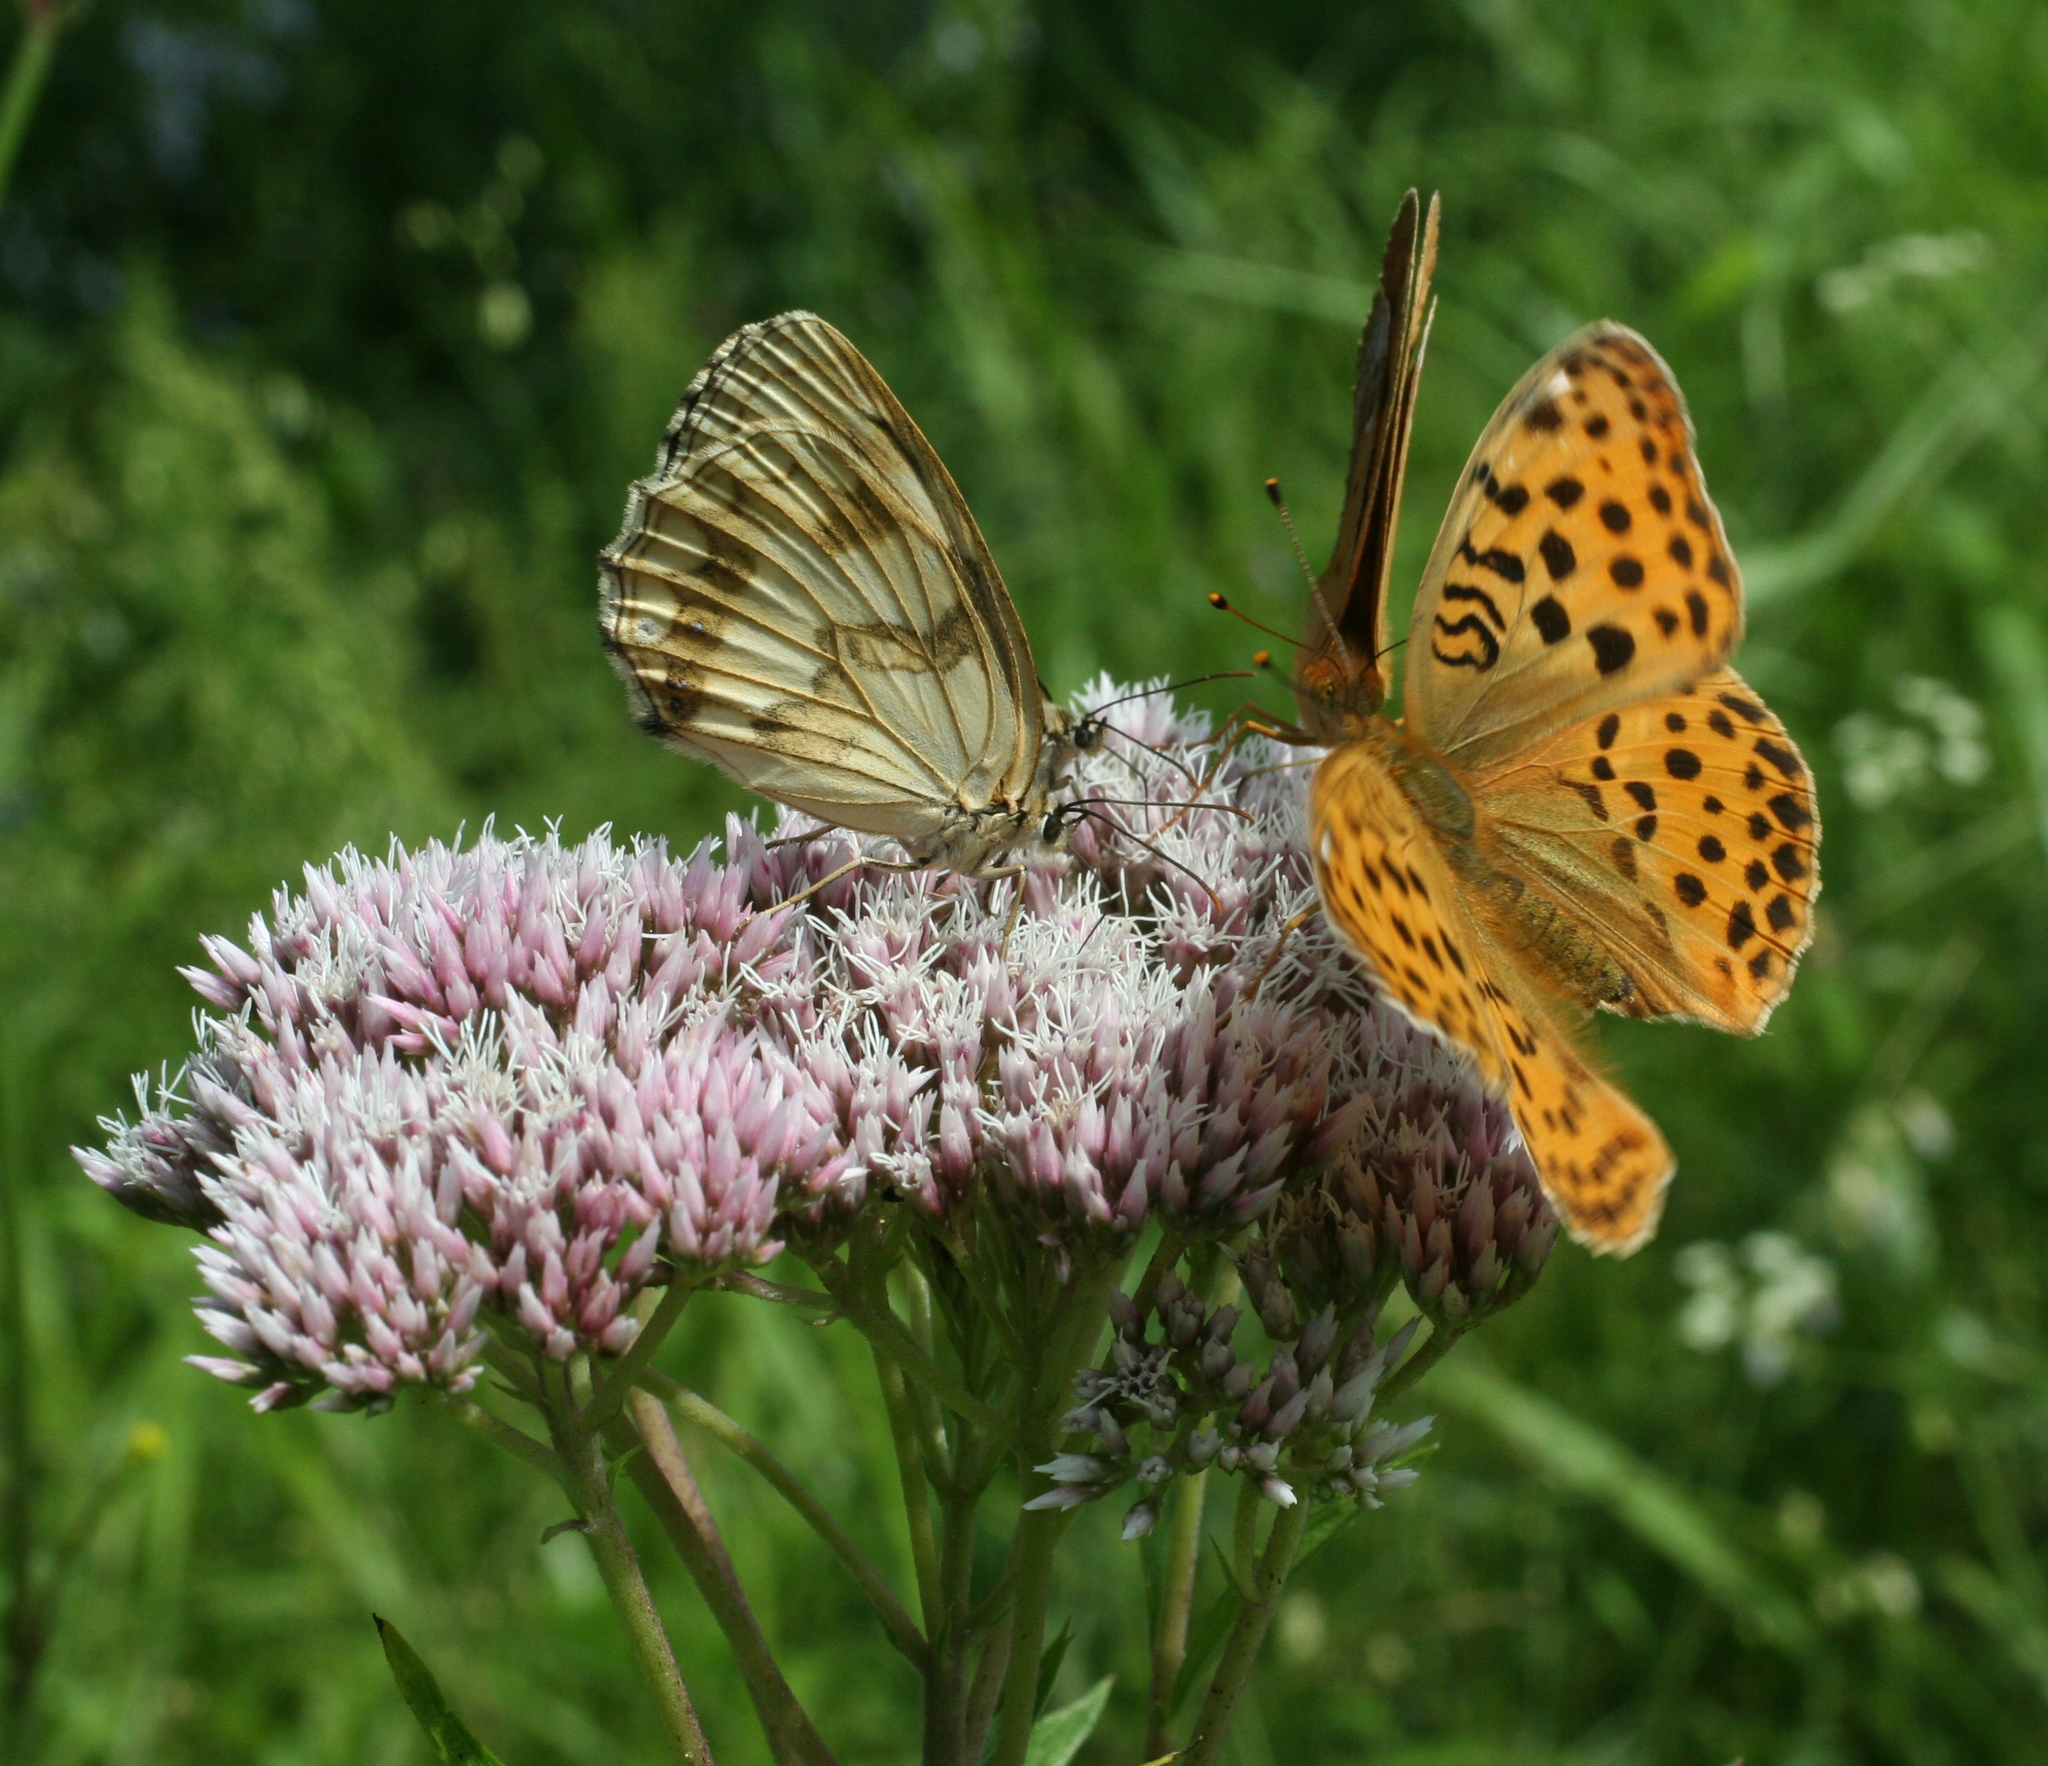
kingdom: Plantae
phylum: Tracheophyta
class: Magnoliopsida
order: Asterales
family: Asteraceae
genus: Eupatorium
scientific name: Eupatorium lindleyanum
